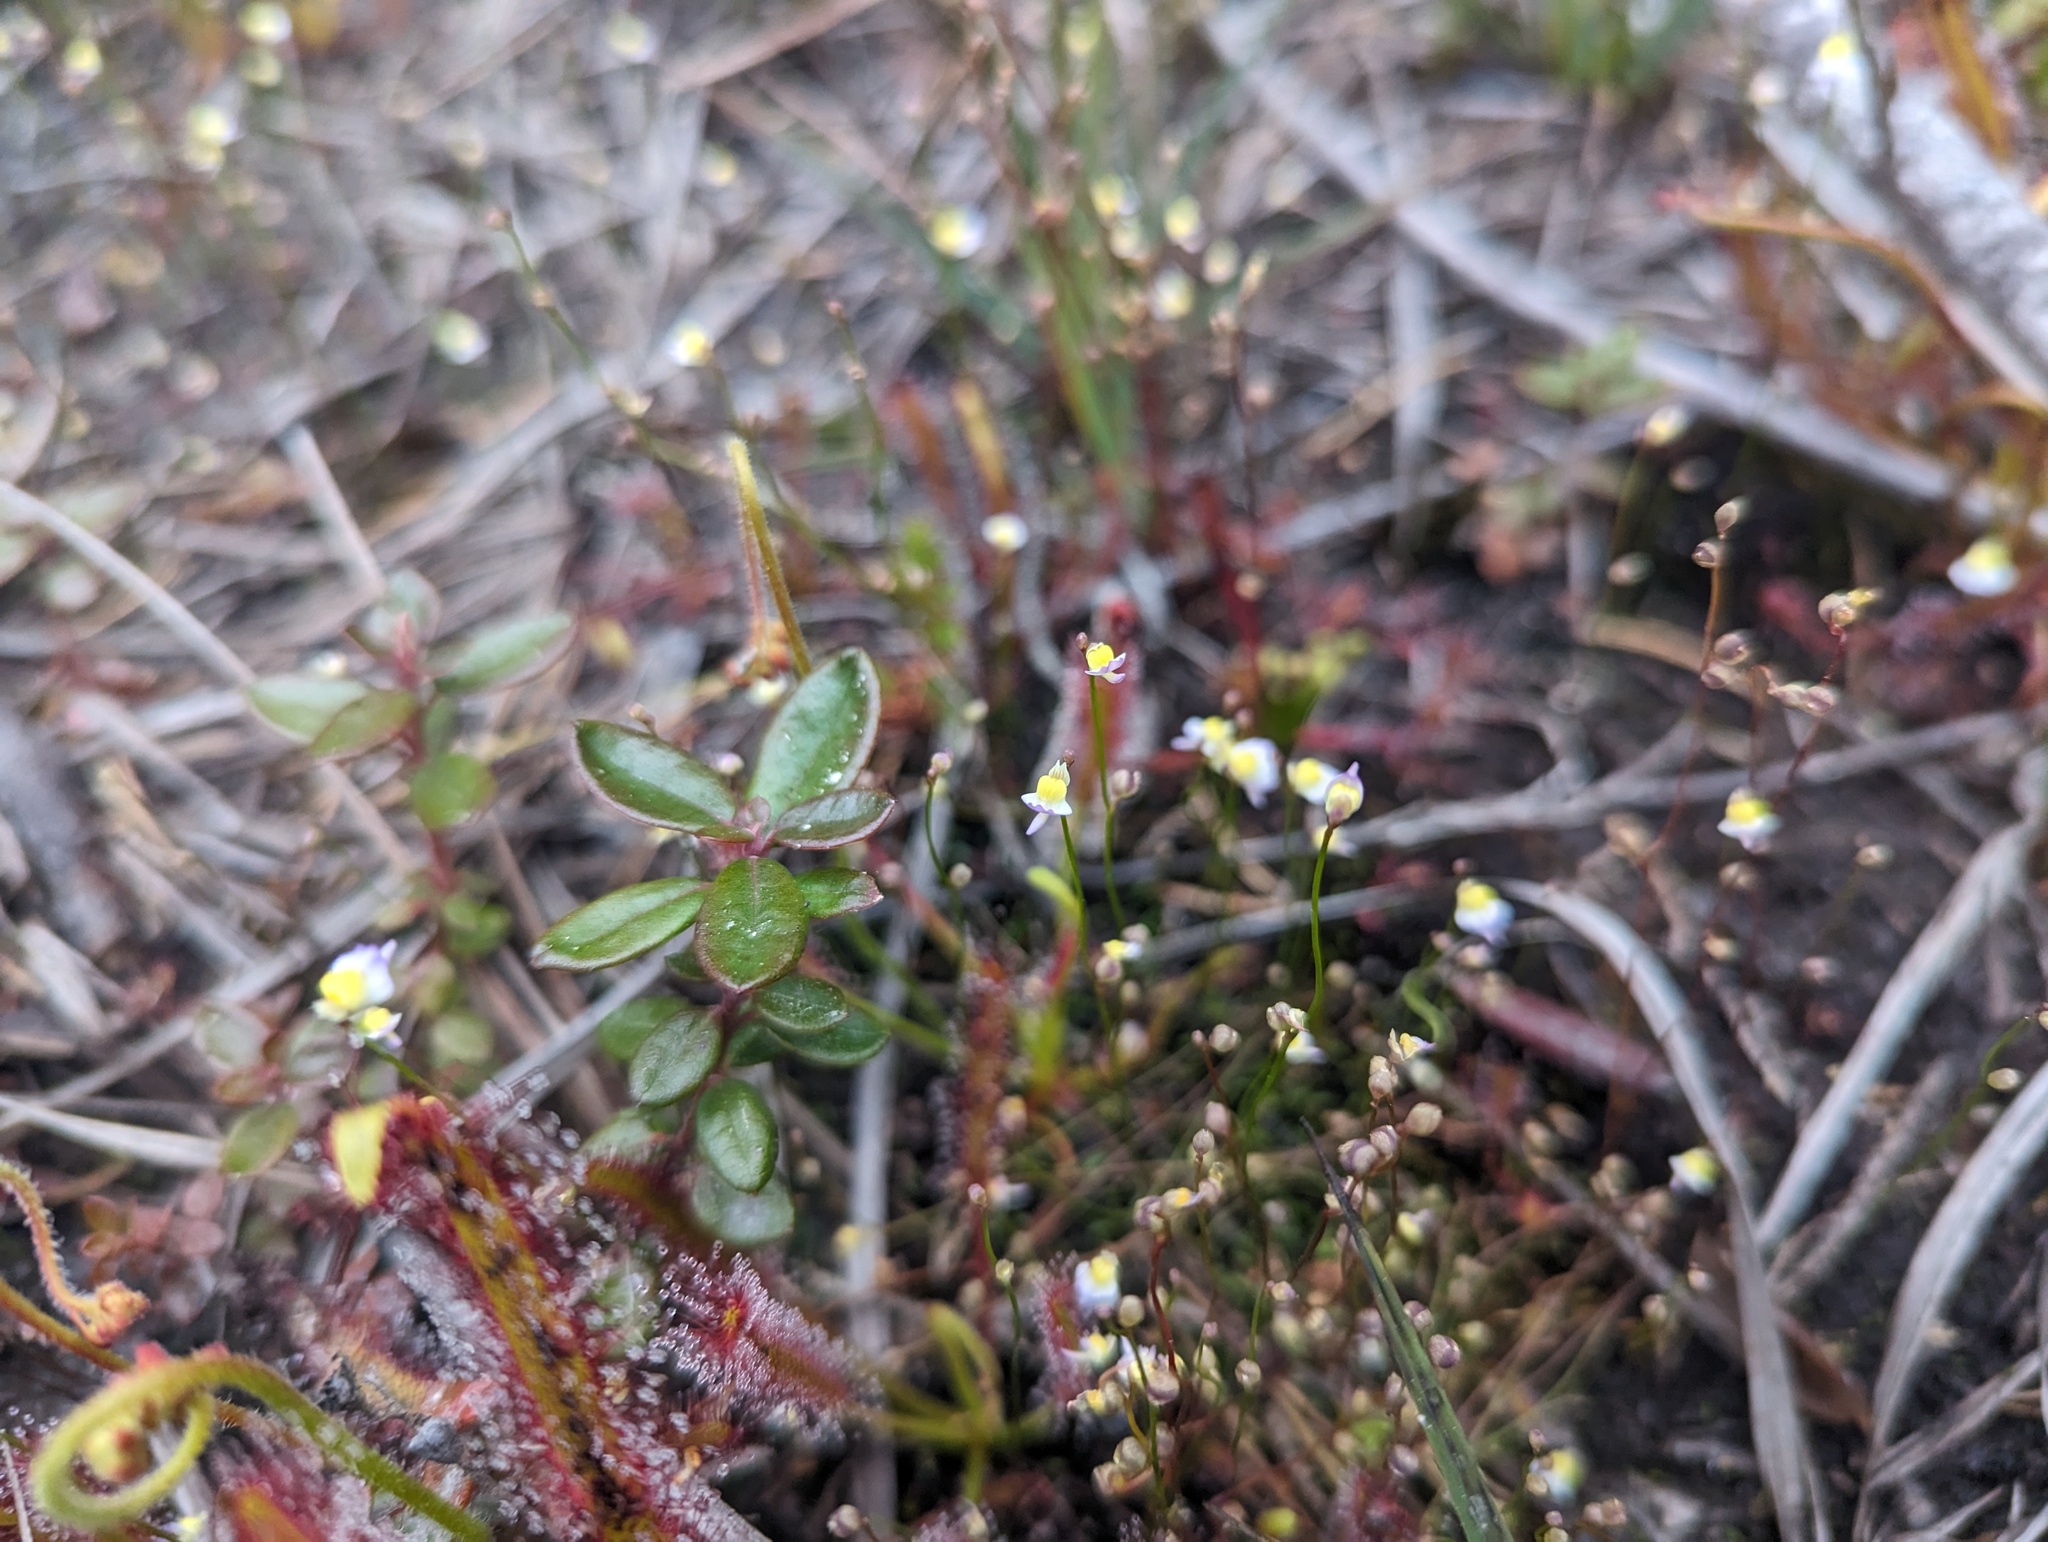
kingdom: Plantae
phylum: Tracheophyta
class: Magnoliopsida
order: Lamiales
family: Lentibulariaceae
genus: Utricularia
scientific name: Utricularia bisquamata
